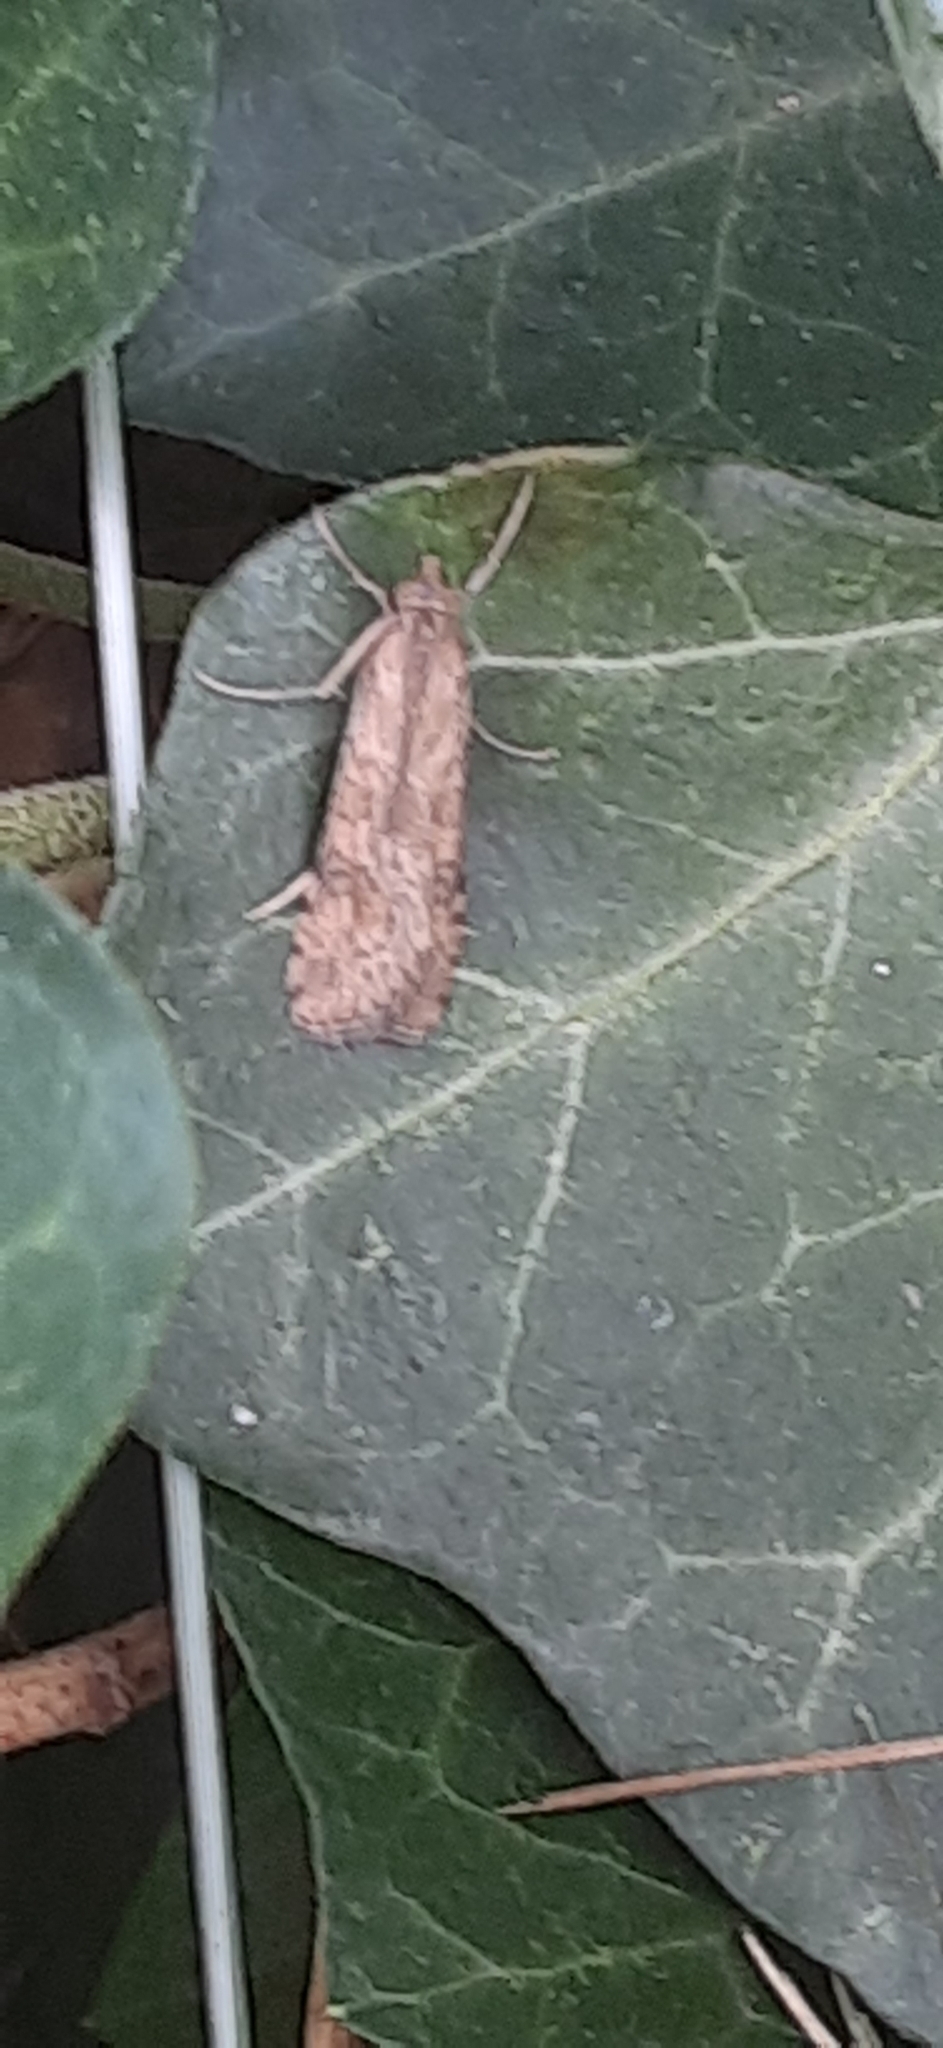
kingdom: Animalia
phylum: Arthropoda
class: Insecta
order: Lepidoptera
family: Crambidae
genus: Nomophila
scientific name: Nomophila nearctica
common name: American rush veneer
